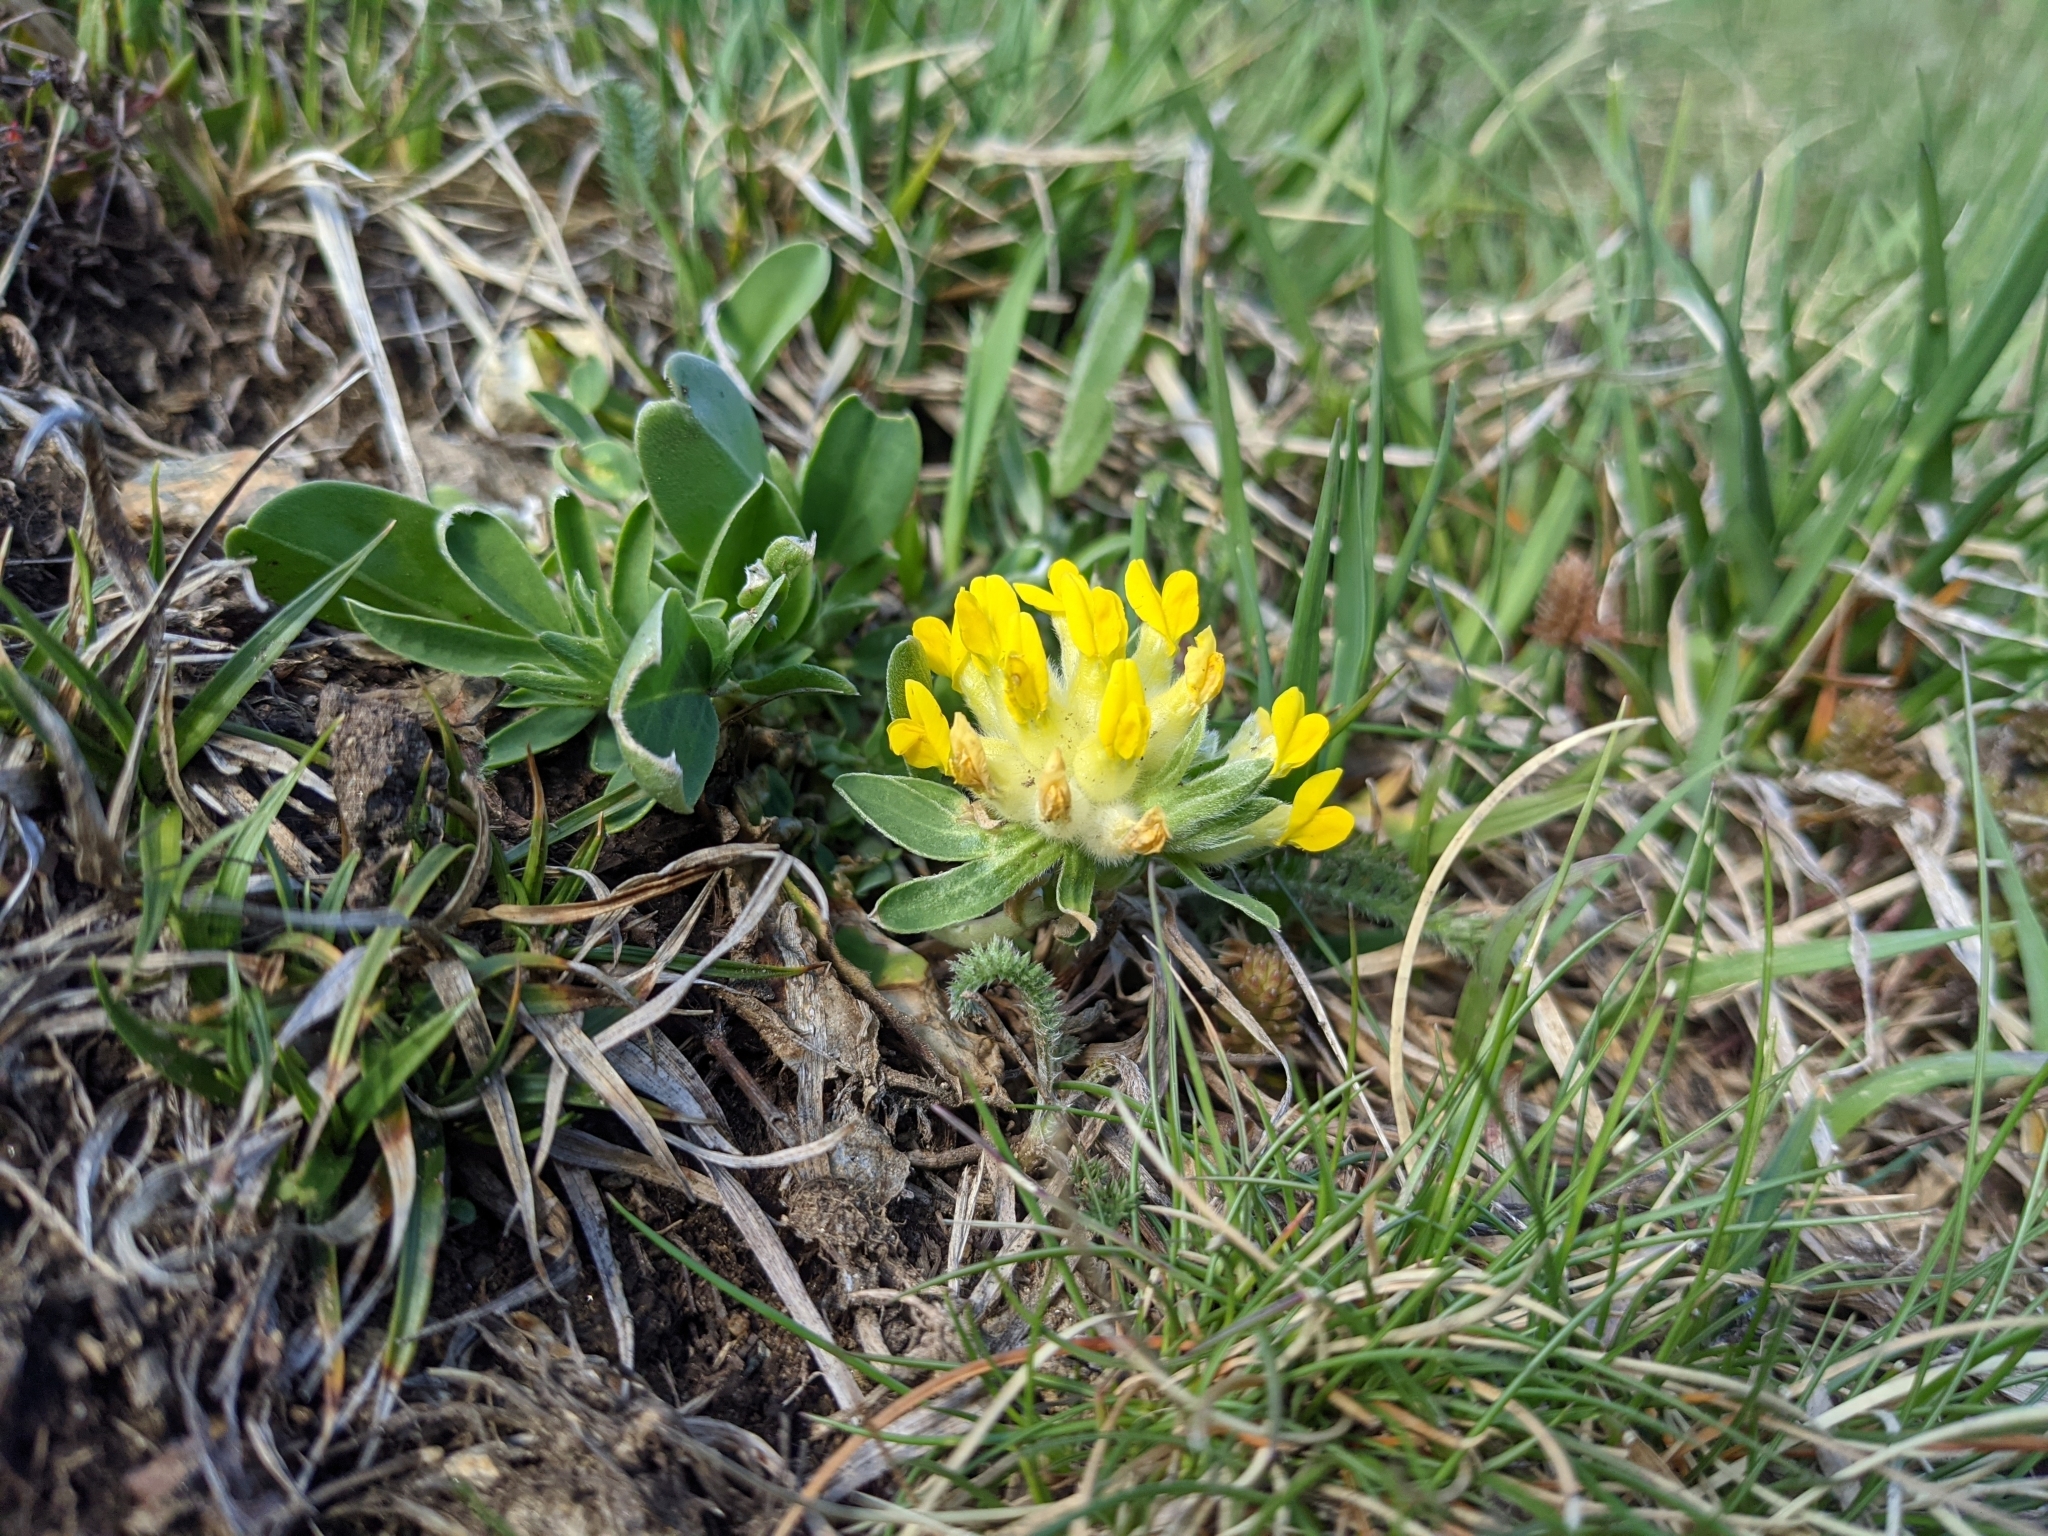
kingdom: Plantae
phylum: Tracheophyta
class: Magnoliopsida
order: Fabales
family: Fabaceae
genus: Anthyllis
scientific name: Anthyllis vulneraria
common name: Kidney vetch
